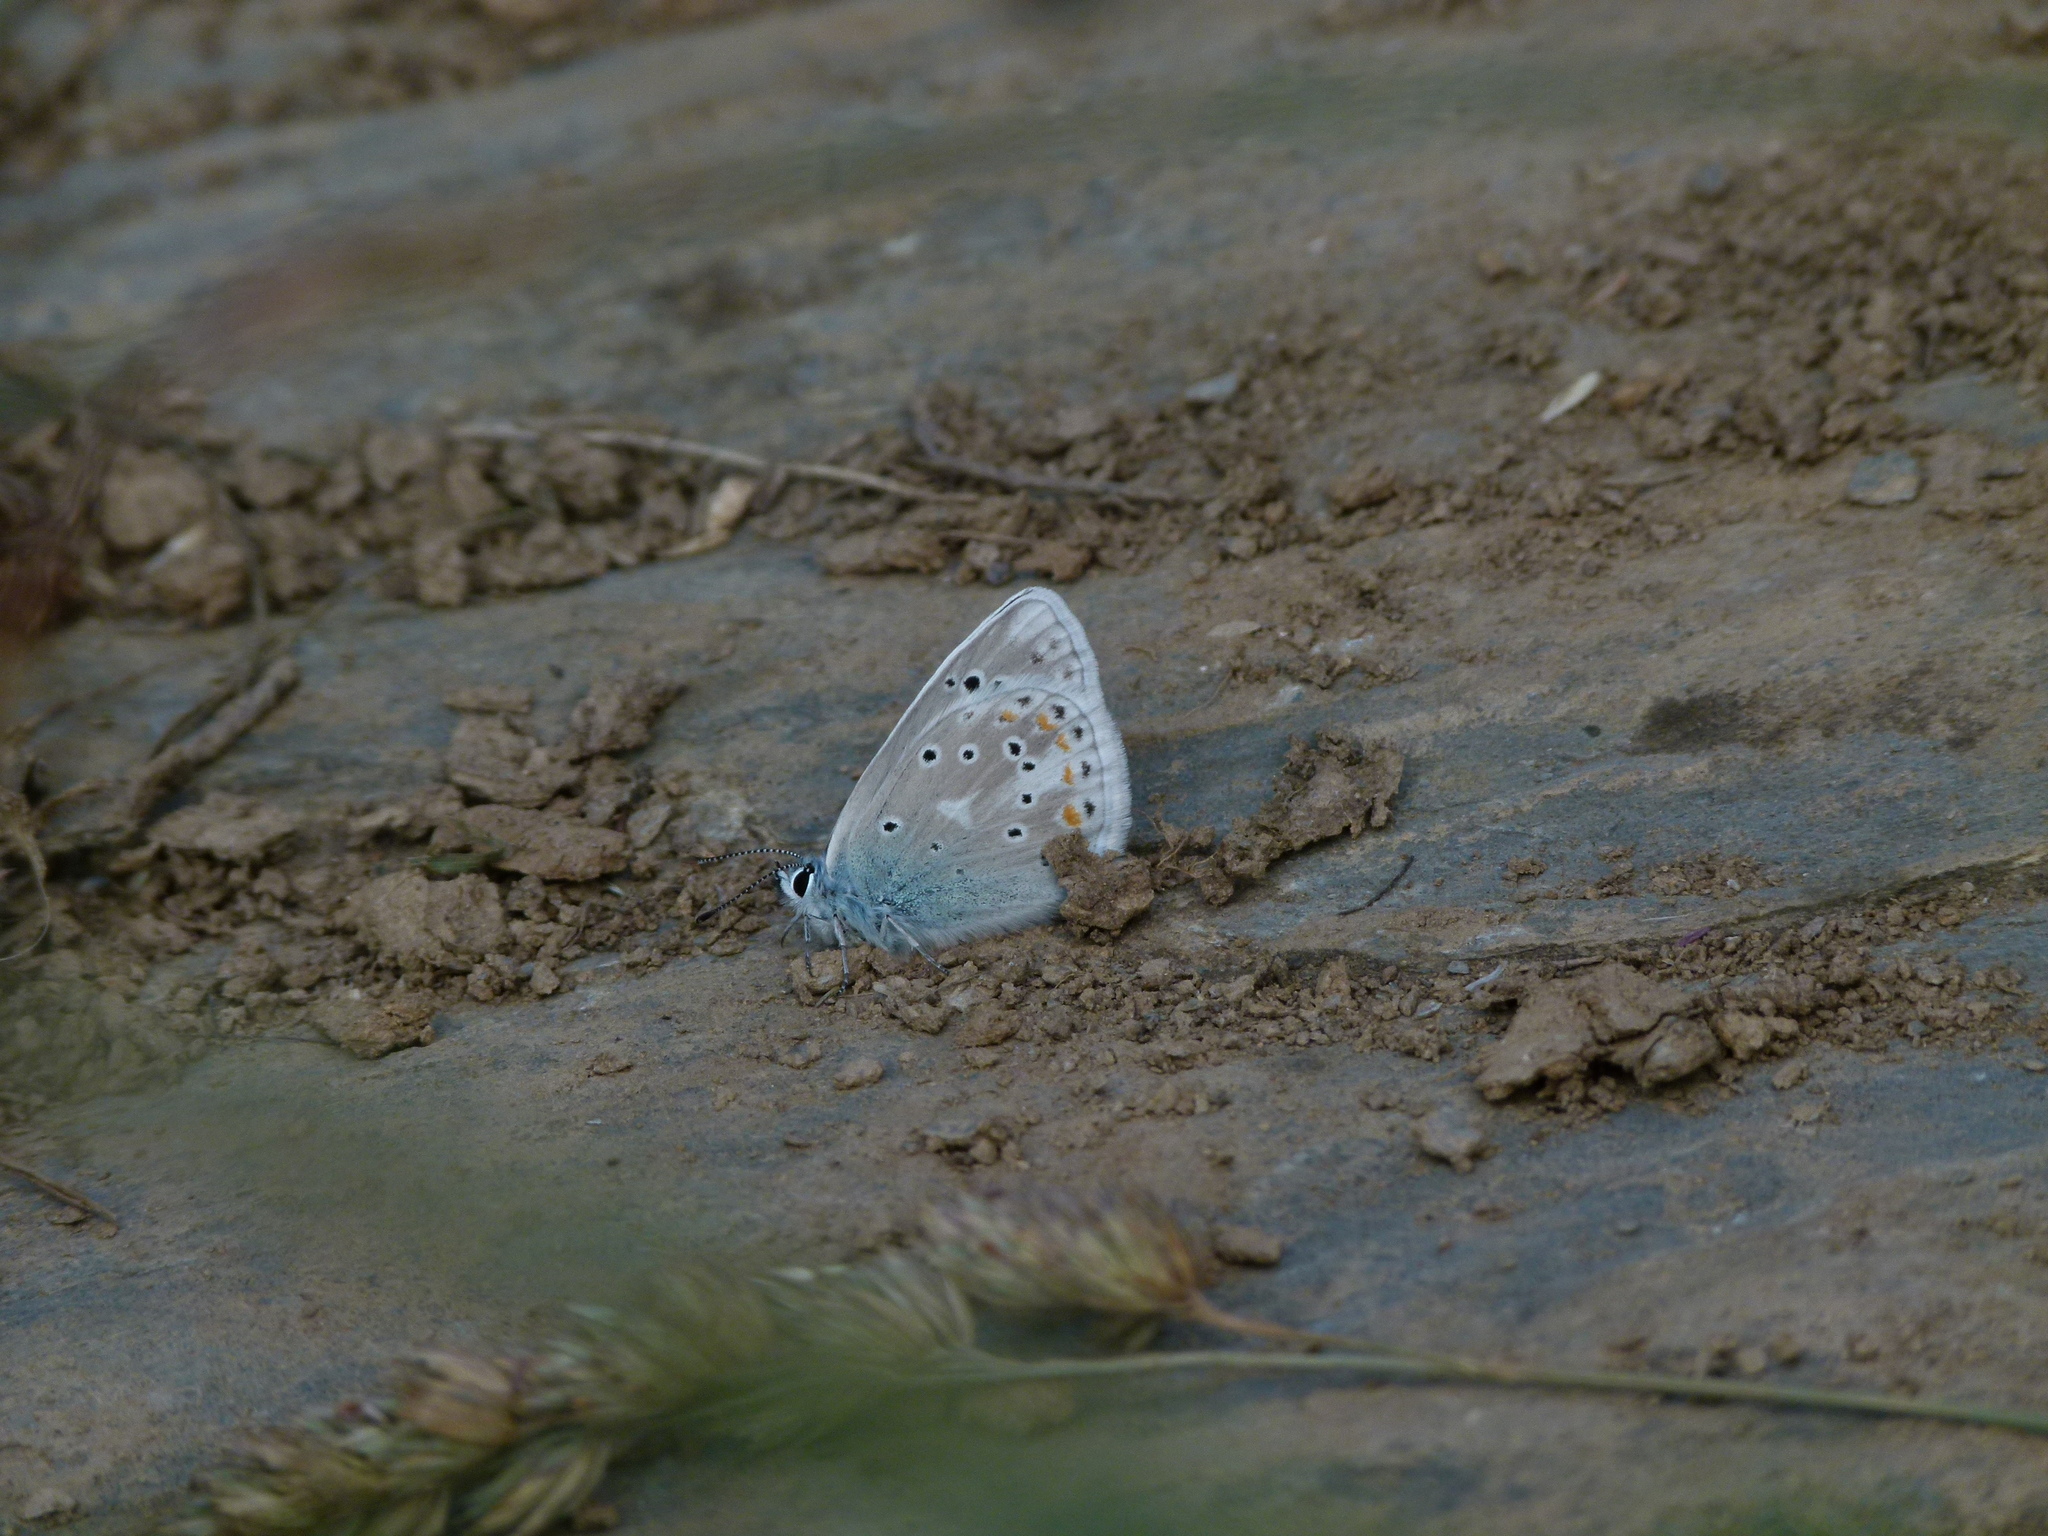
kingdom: Animalia
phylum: Arthropoda
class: Insecta
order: Lepidoptera
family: Lycaenidae
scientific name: Lycaenidae
